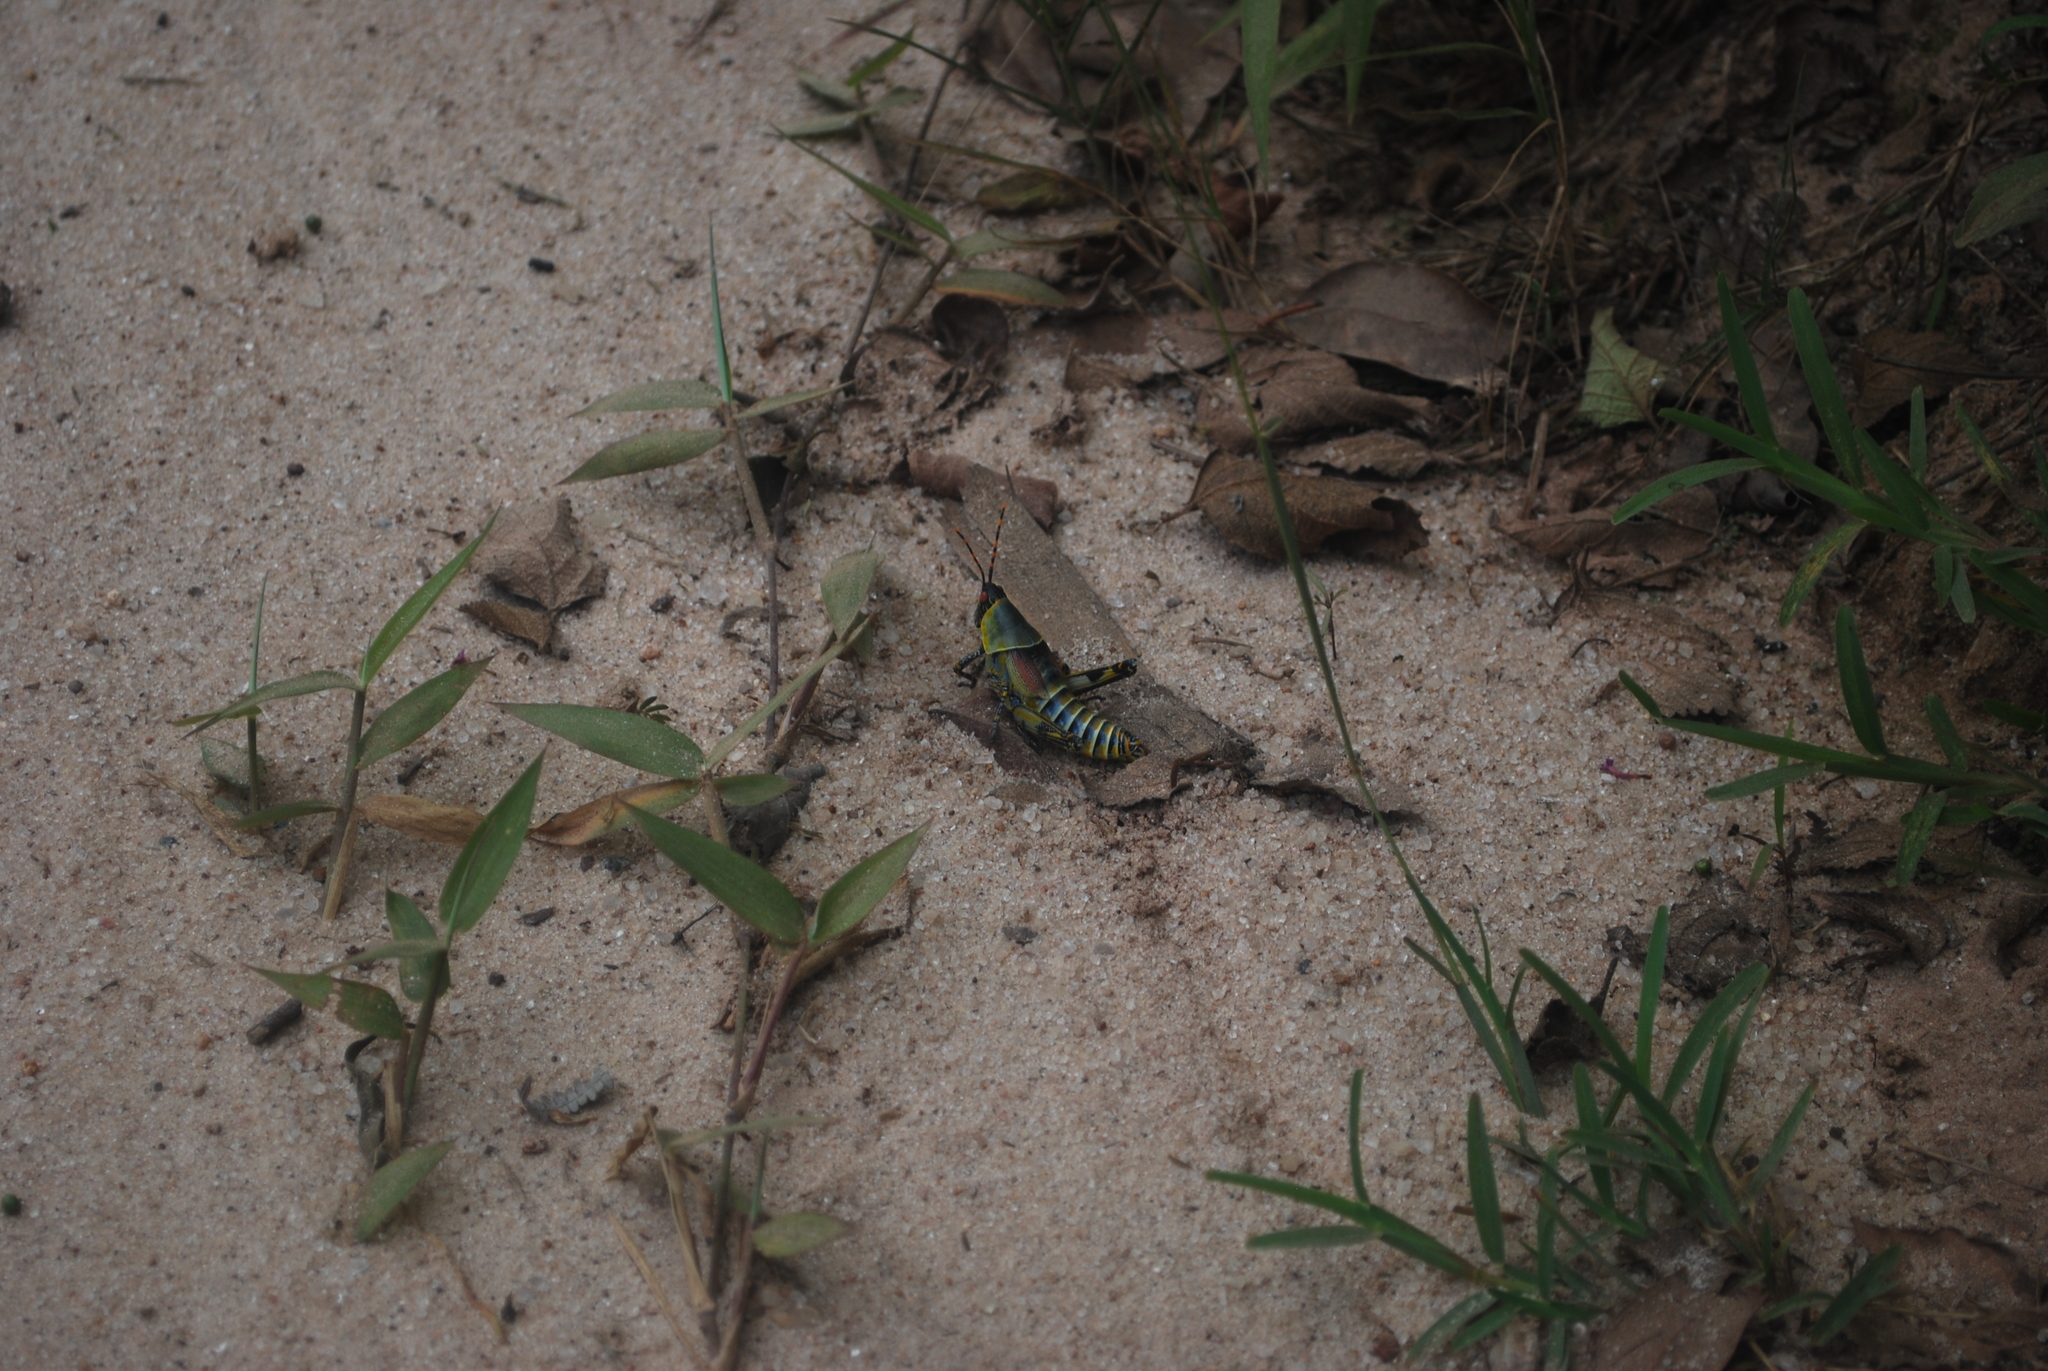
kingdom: Animalia
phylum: Arthropoda
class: Insecta
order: Orthoptera
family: Pyrgomorphidae
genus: Zonocerus
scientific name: Zonocerus elegans
